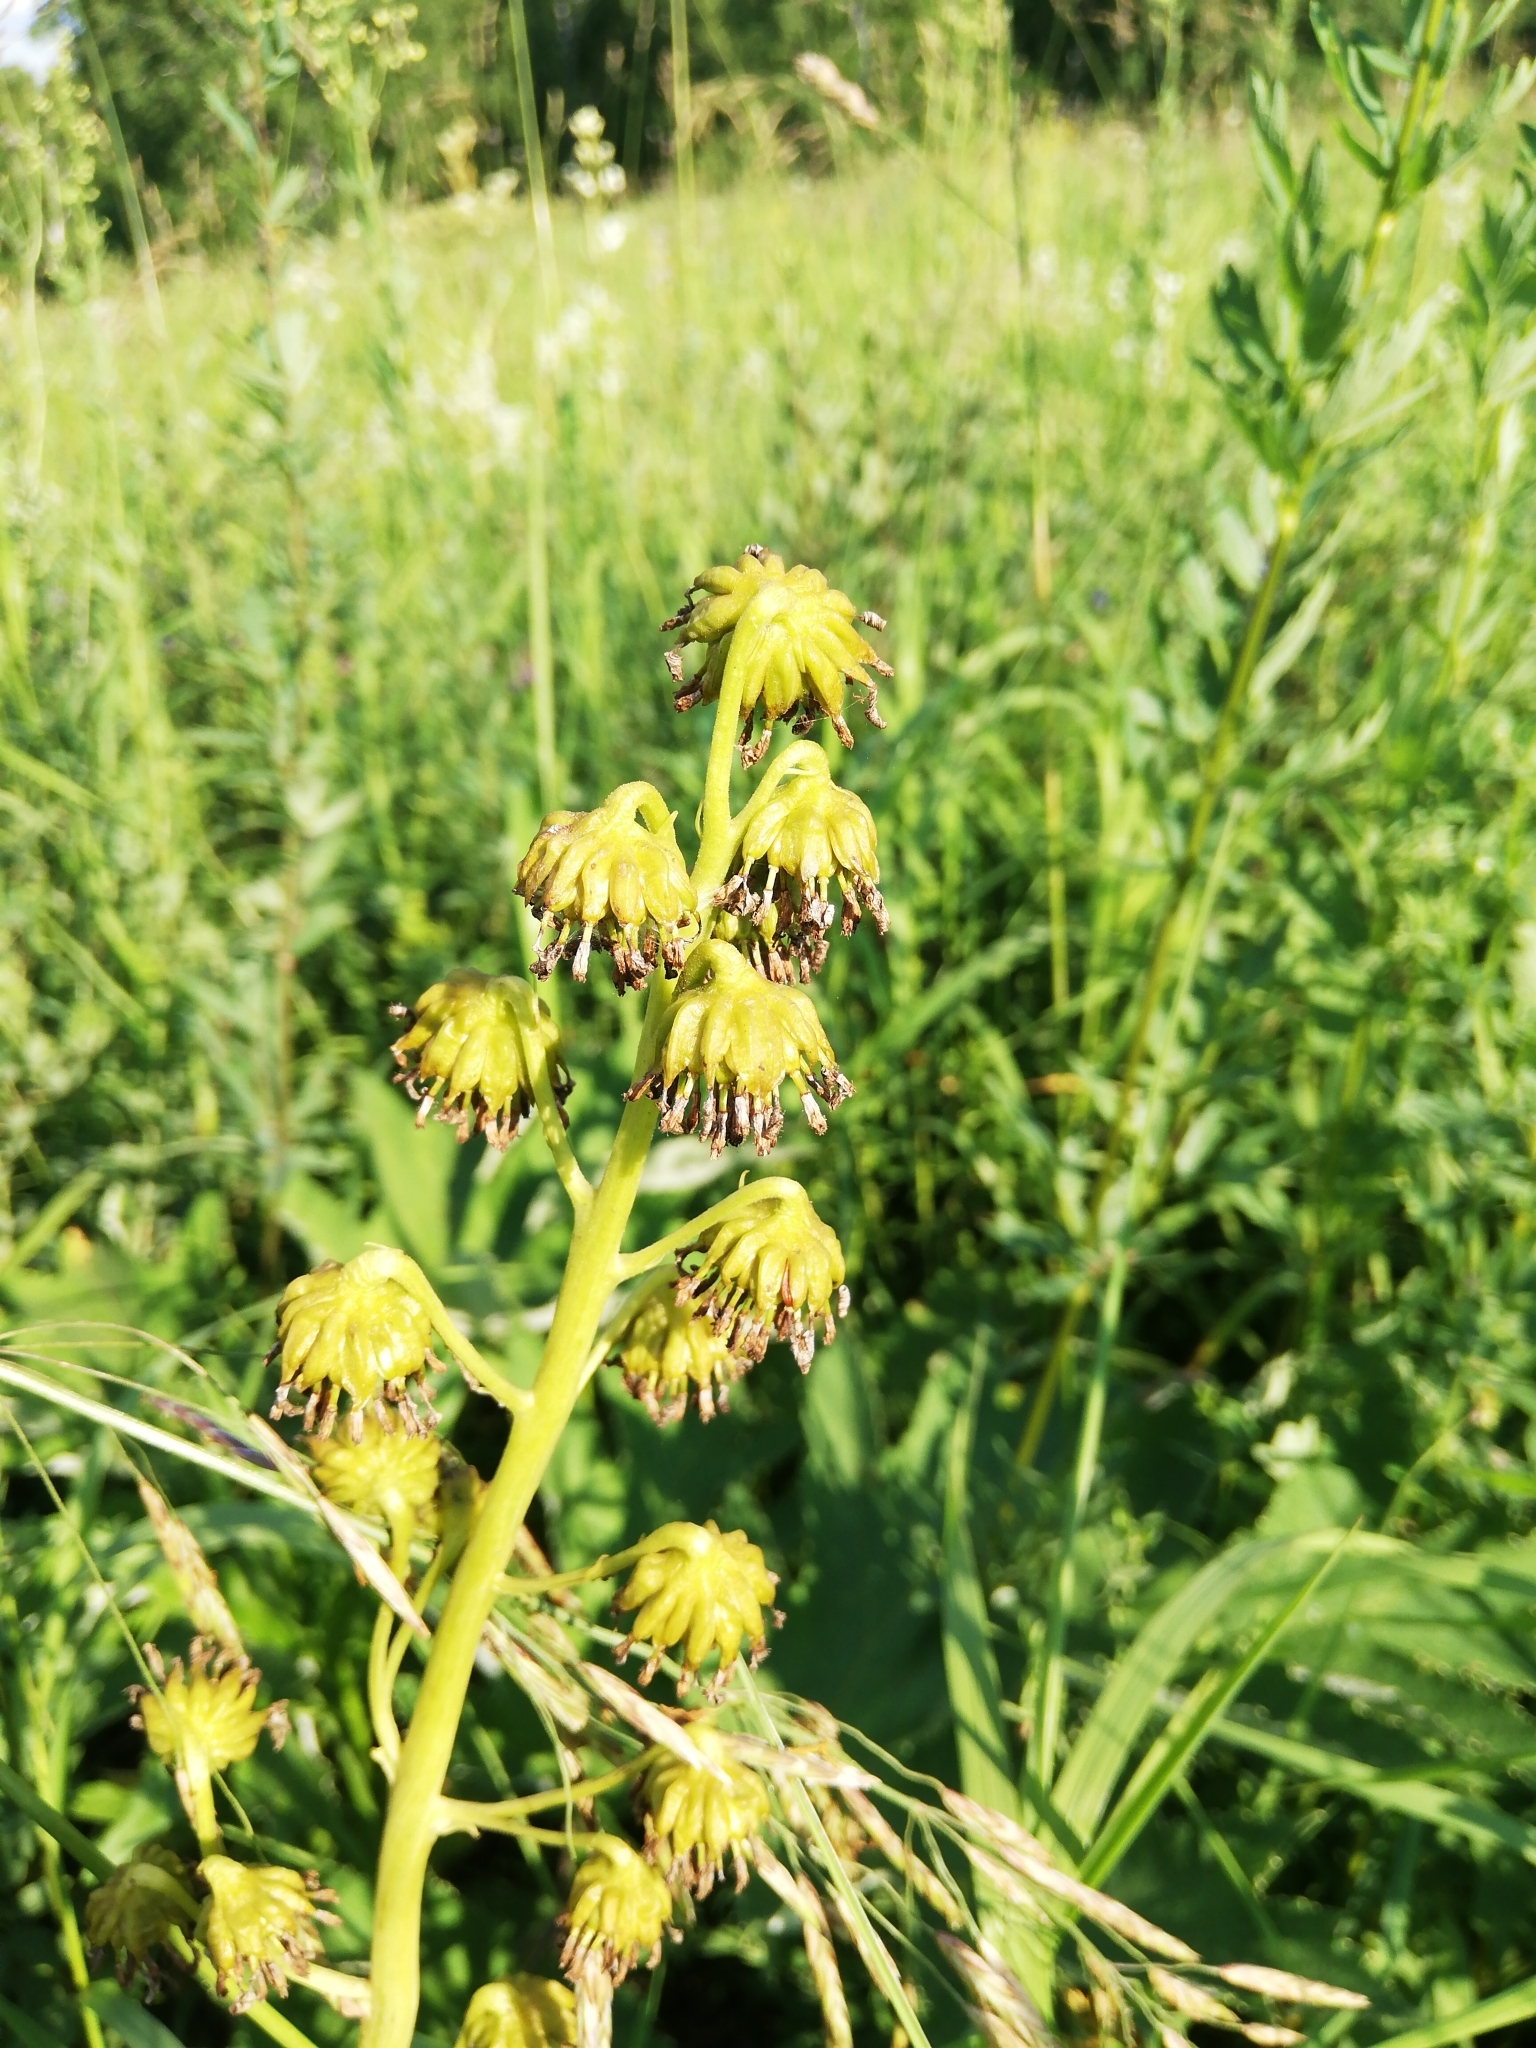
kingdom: Plantae
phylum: Tracheophyta
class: Magnoliopsida
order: Asterales
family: Asteraceae
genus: Ligularia
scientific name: Ligularia glauca
